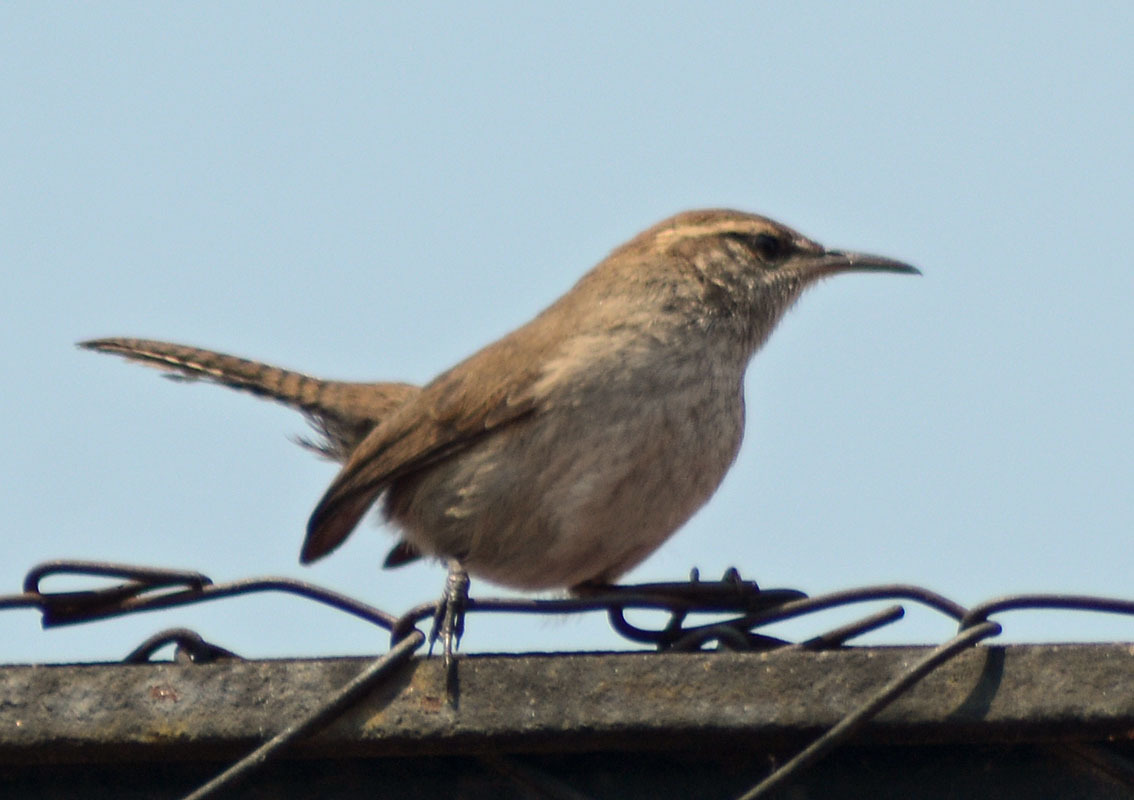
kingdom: Animalia
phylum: Chordata
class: Aves
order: Passeriformes
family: Troglodytidae
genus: Thryomanes
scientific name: Thryomanes bewickii
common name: Bewick's wren
